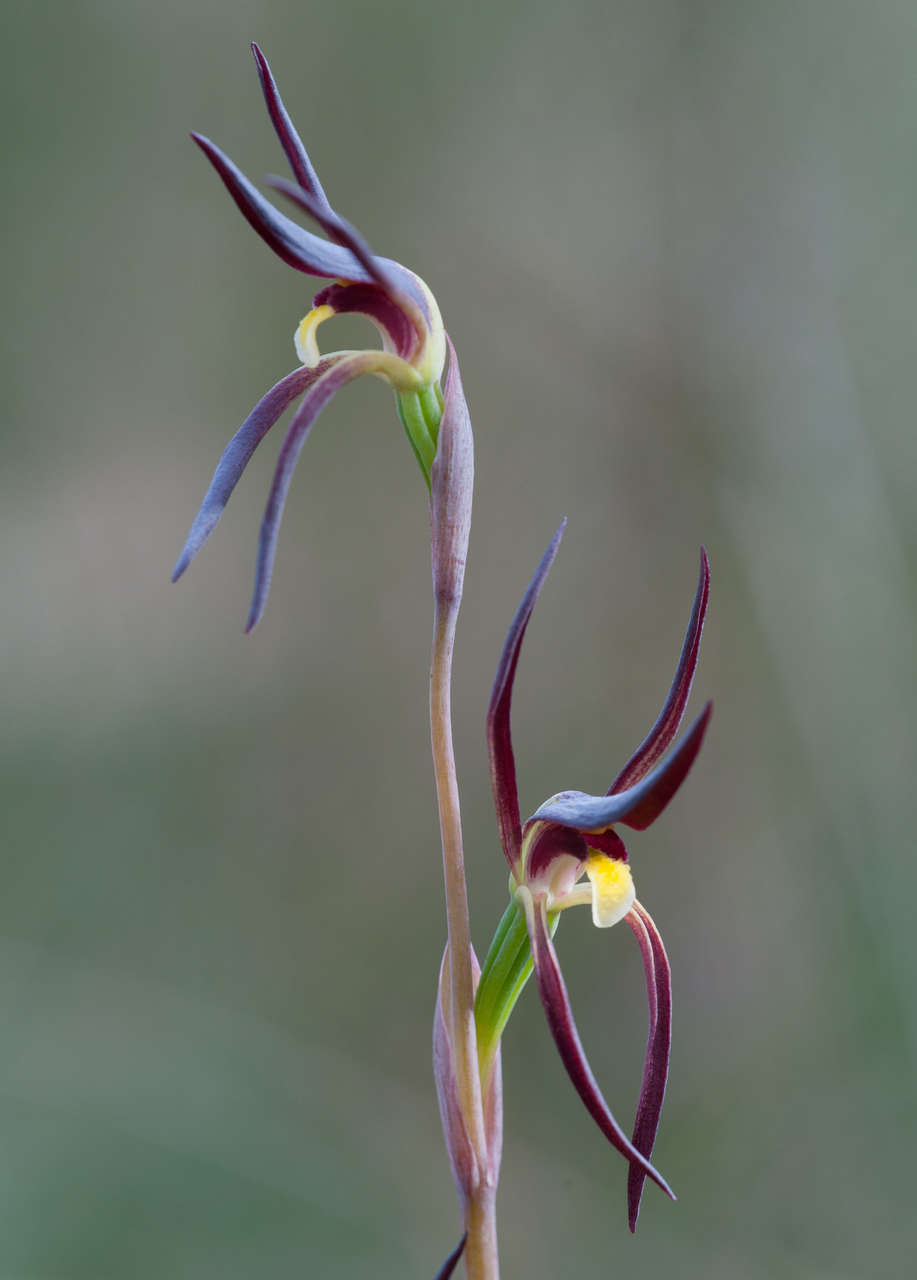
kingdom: Plantae
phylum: Tracheophyta
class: Liliopsida
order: Asparagales
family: Orchidaceae
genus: Lyperanthus
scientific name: Lyperanthus suaveolens
